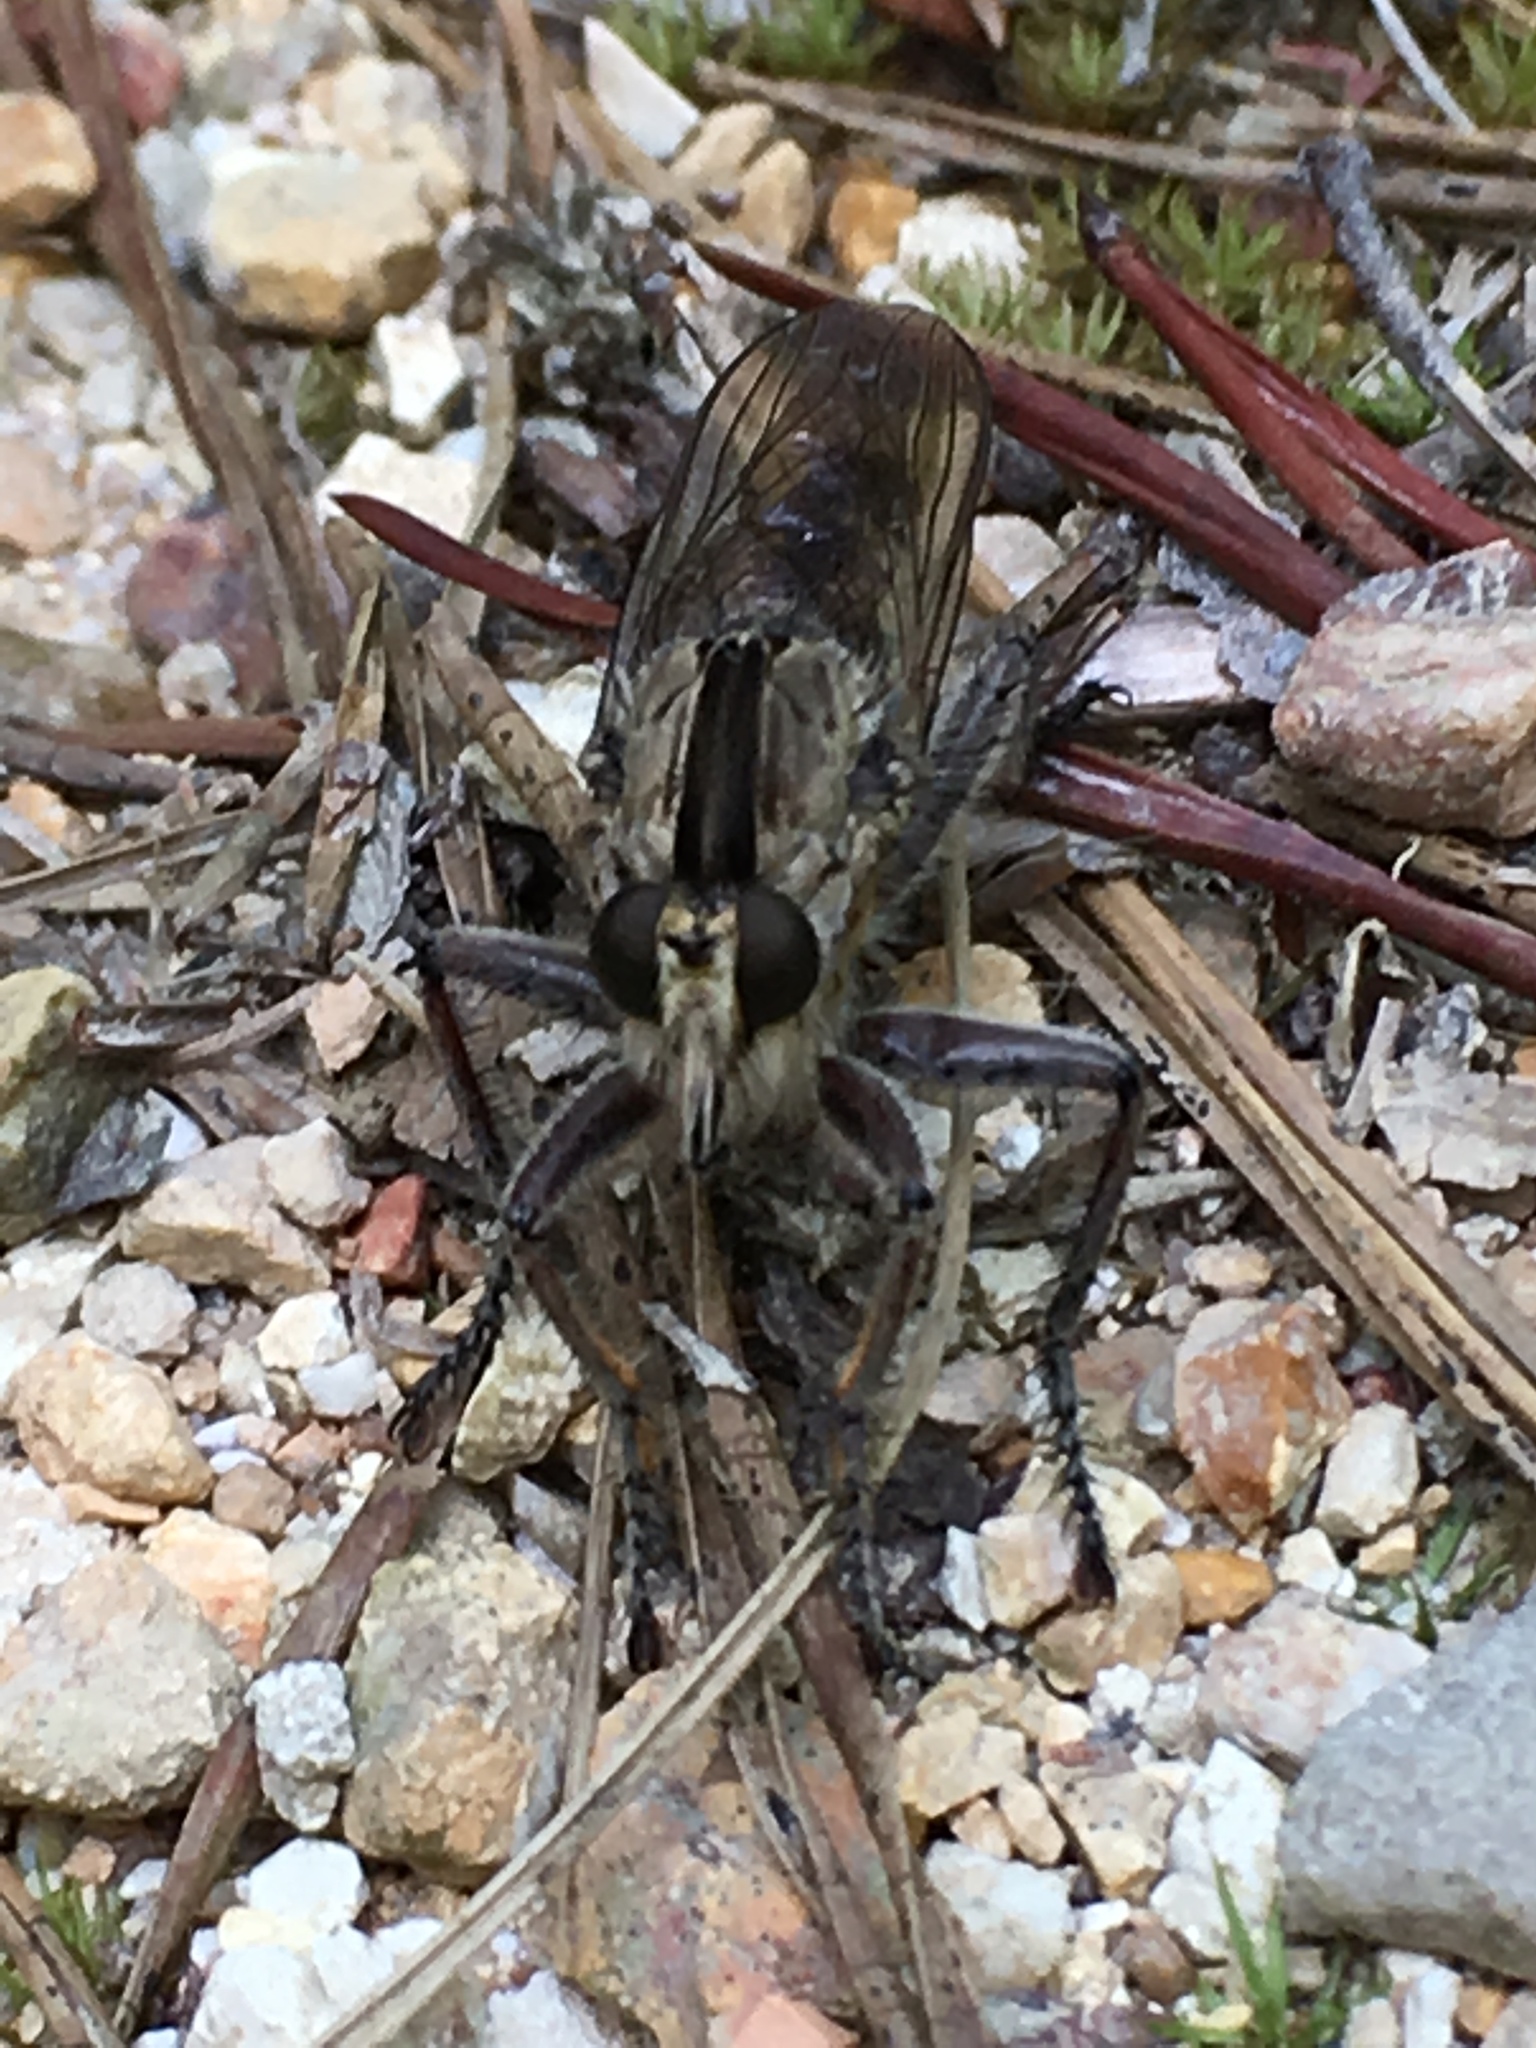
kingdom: Animalia
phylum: Arthropoda
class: Insecta
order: Diptera
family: Asilidae
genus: Triorla
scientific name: Triorla interrupta
